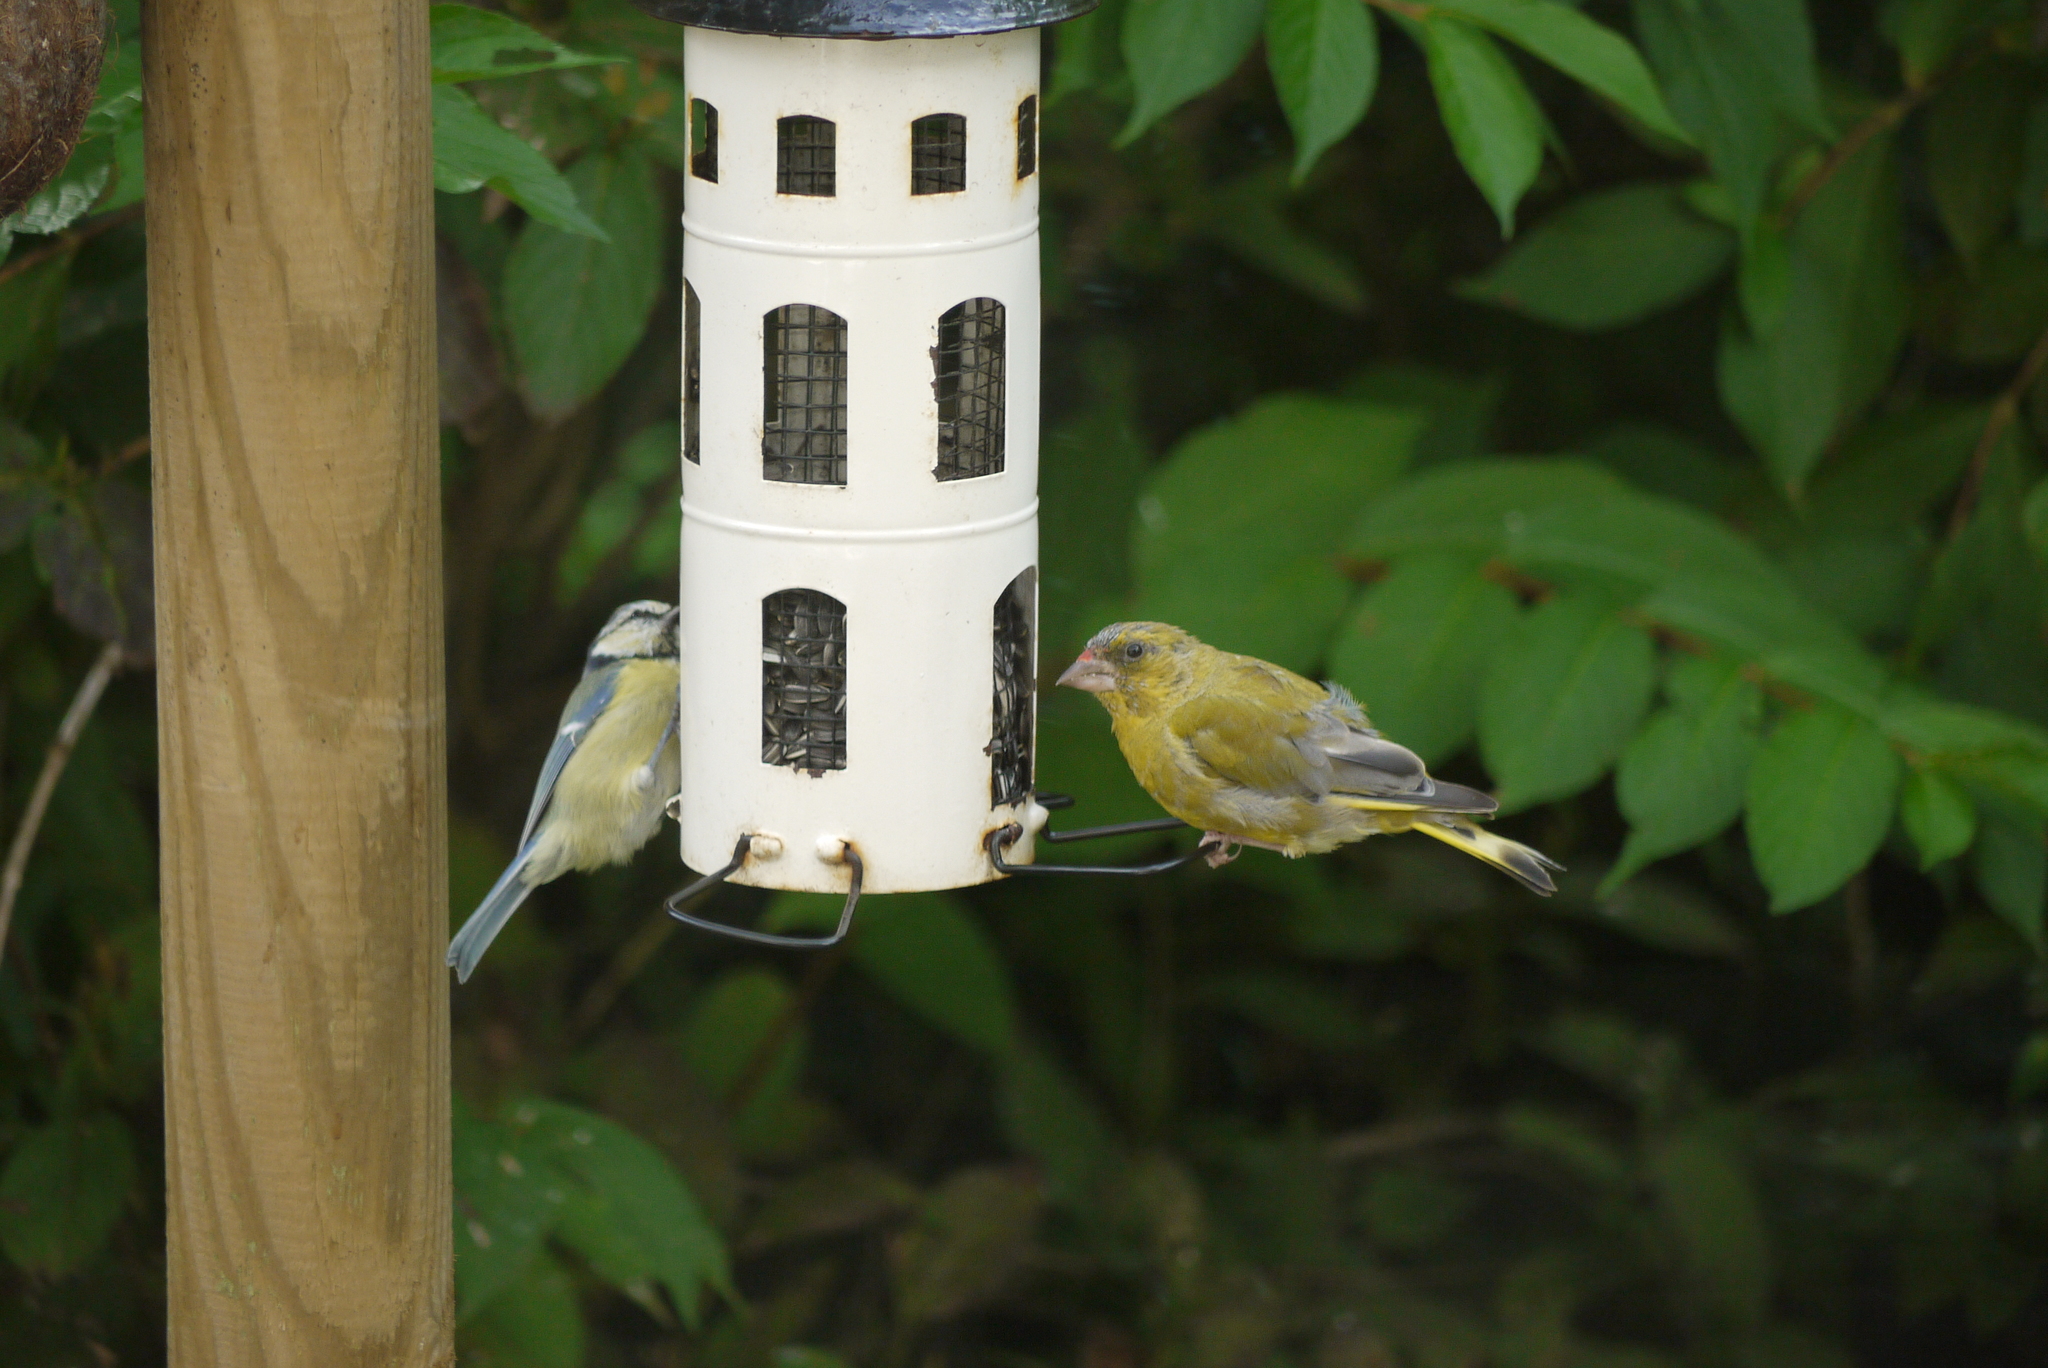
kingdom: Plantae
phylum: Tracheophyta
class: Liliopsida
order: Poales
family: Poaceae
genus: Chloris
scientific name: Chloris chloris
